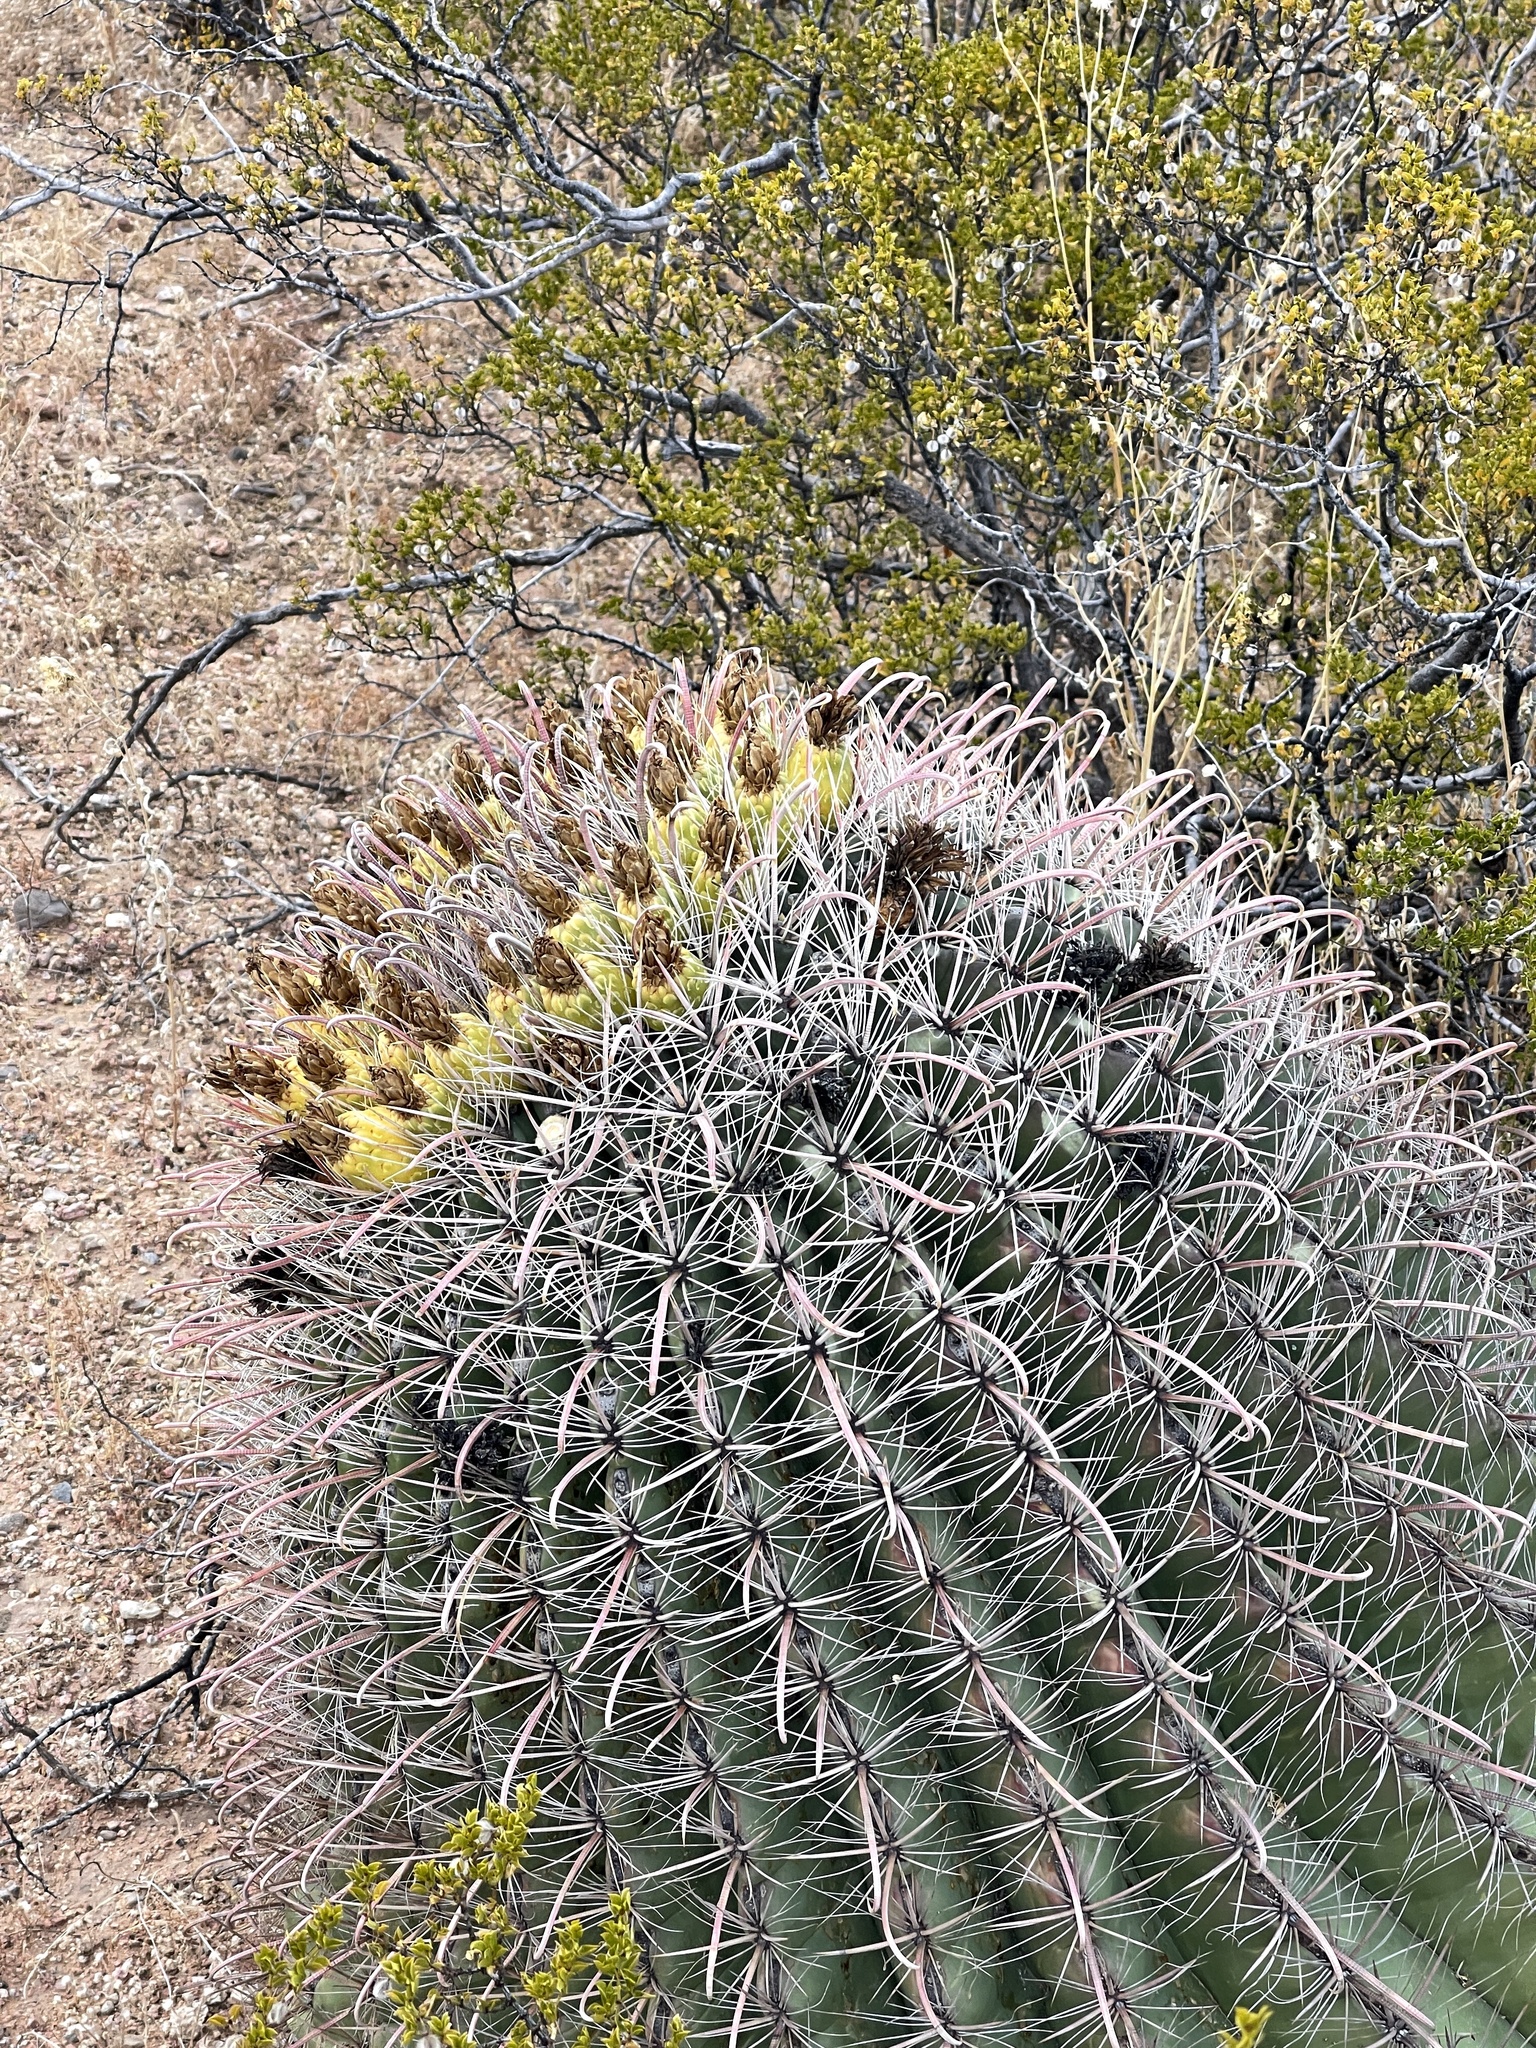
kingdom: Plantae
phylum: Tracheophyta
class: Magnoliopsida
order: Caryophyllales
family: Cactaceae
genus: Ferocactus
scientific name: Ferocactus wislizeni
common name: Candy barrel cactus
